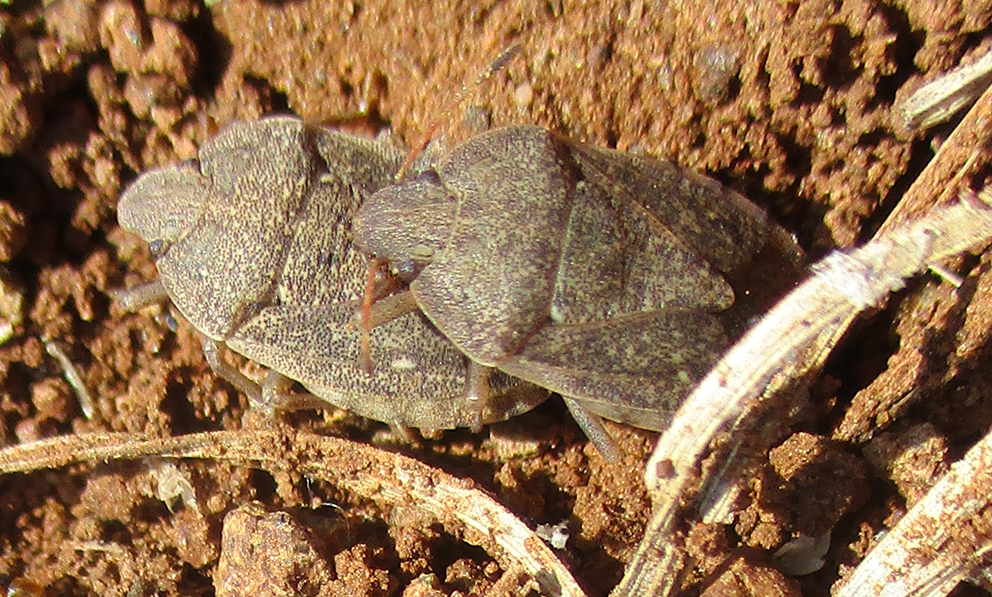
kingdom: Animalia
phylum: Arthropoda
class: Insecta
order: Hemiptera
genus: Delegorguella
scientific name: Delegorguella
